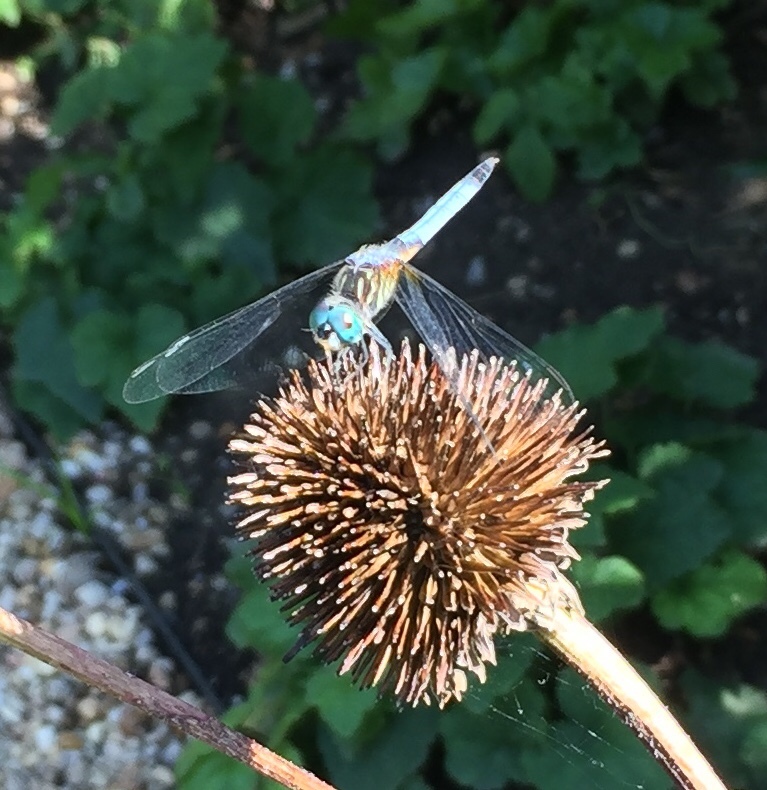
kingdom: Animalia
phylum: Arthropoda
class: Insecta
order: Odonata
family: Libellulidae
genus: Pachydiplax
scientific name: Pachydiplax longipennis
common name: Blue dasher
